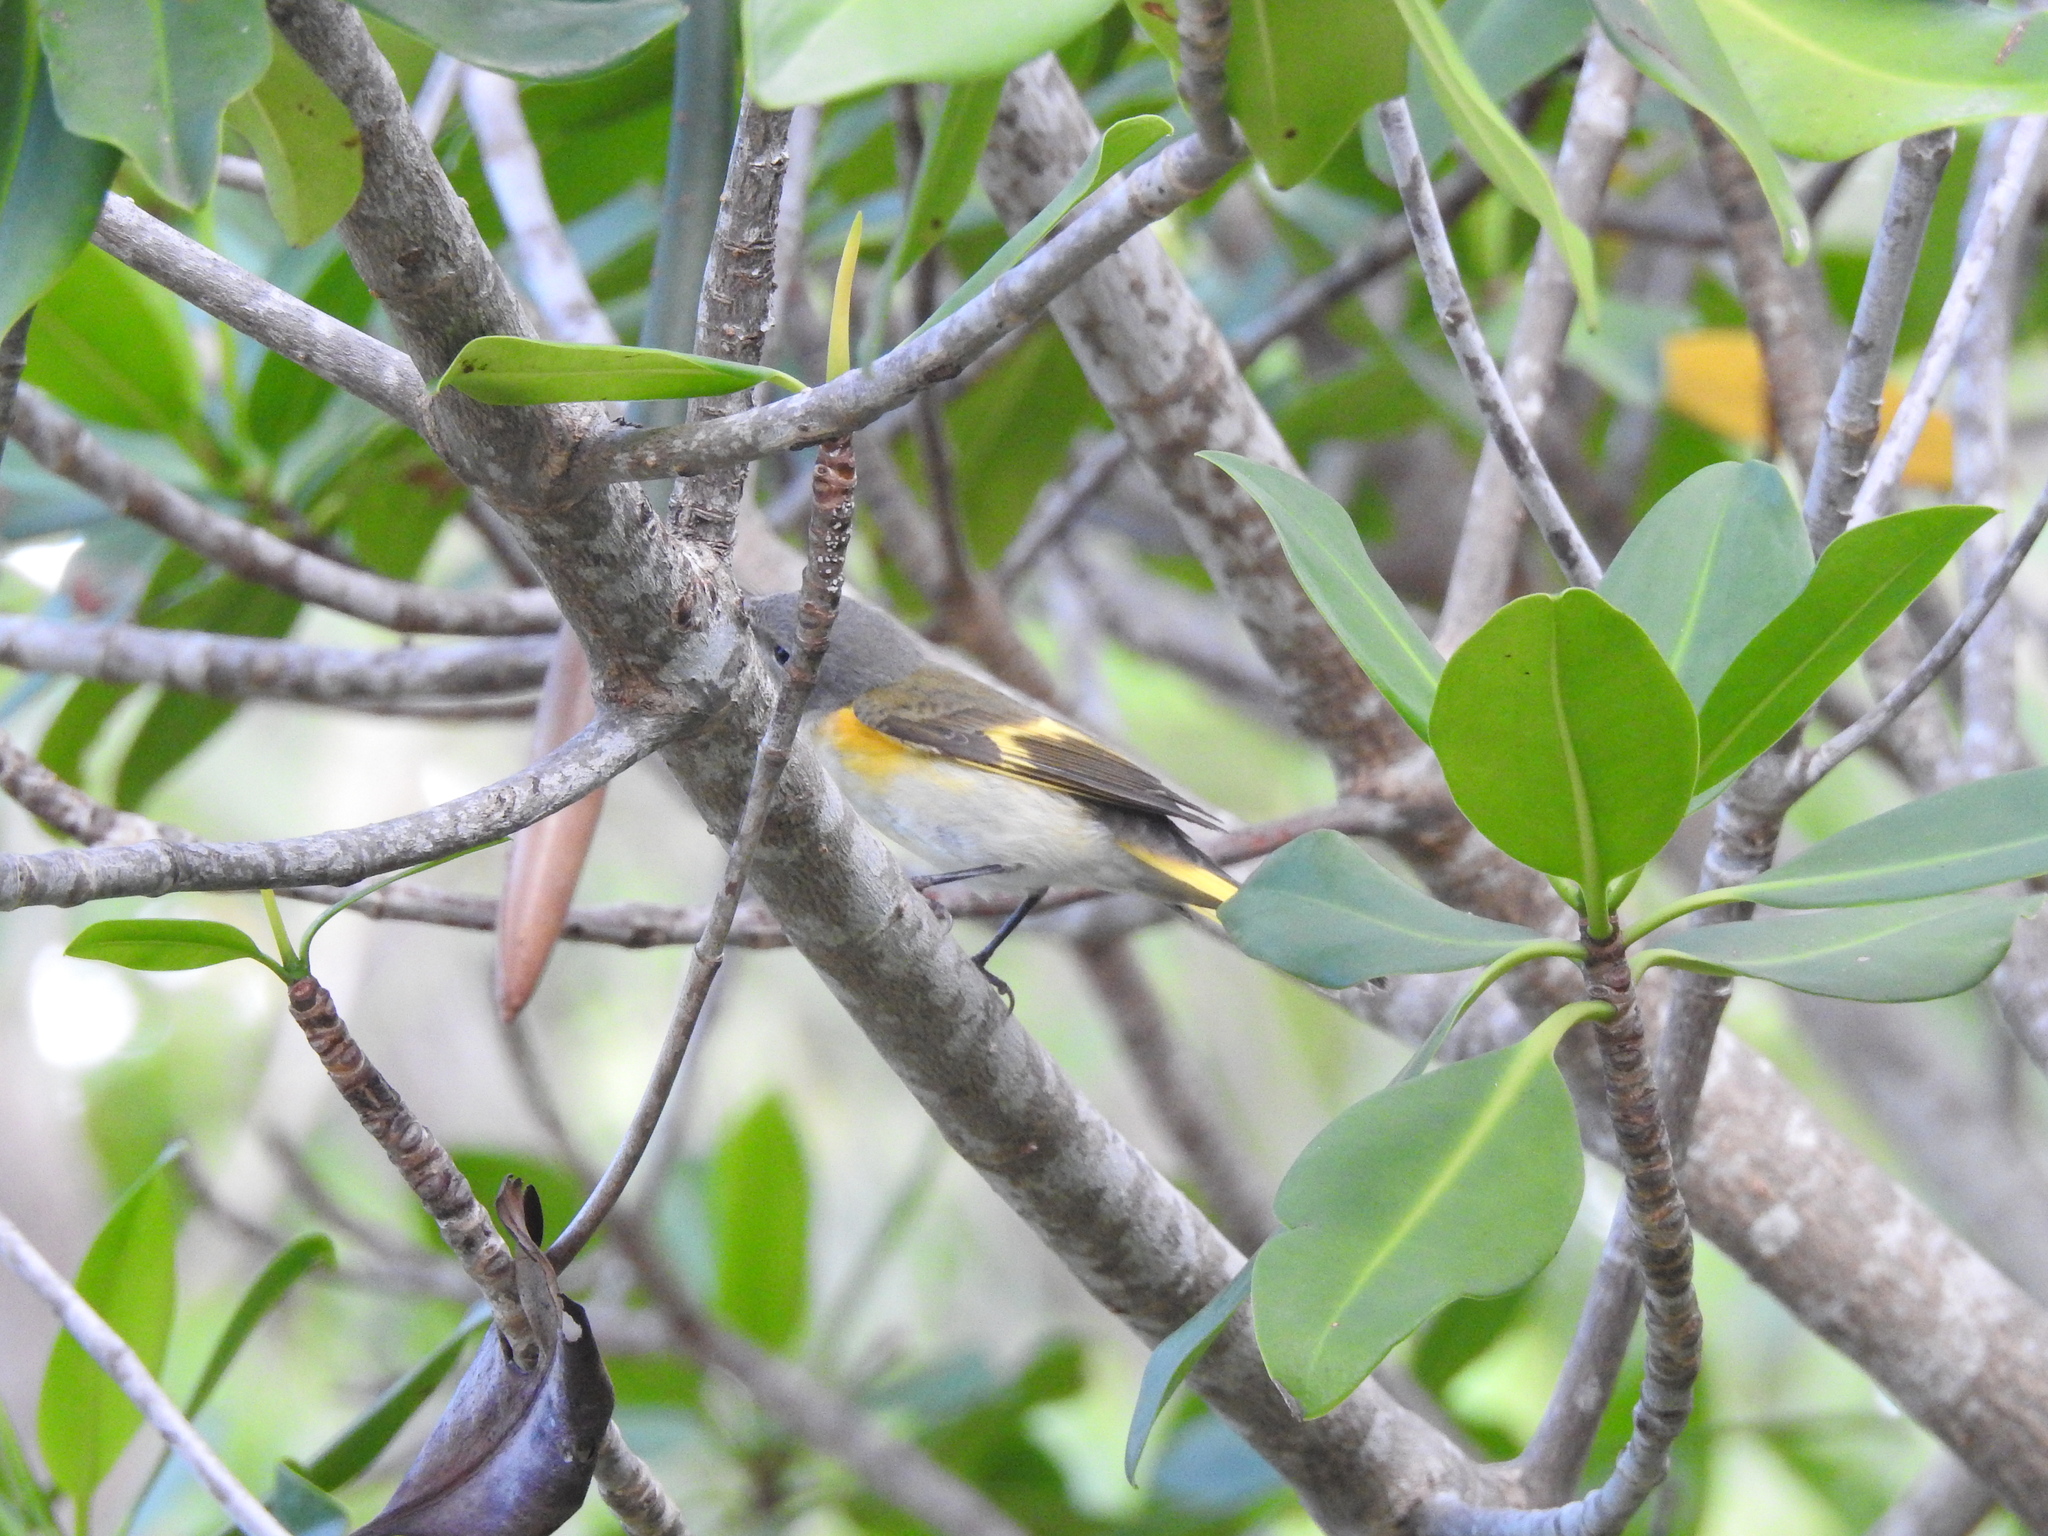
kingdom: Animalia
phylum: Chordata
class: Aves
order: Passeriformes
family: Parulidae
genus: Setophaga
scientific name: Setophaga ruticilla
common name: American redstart
